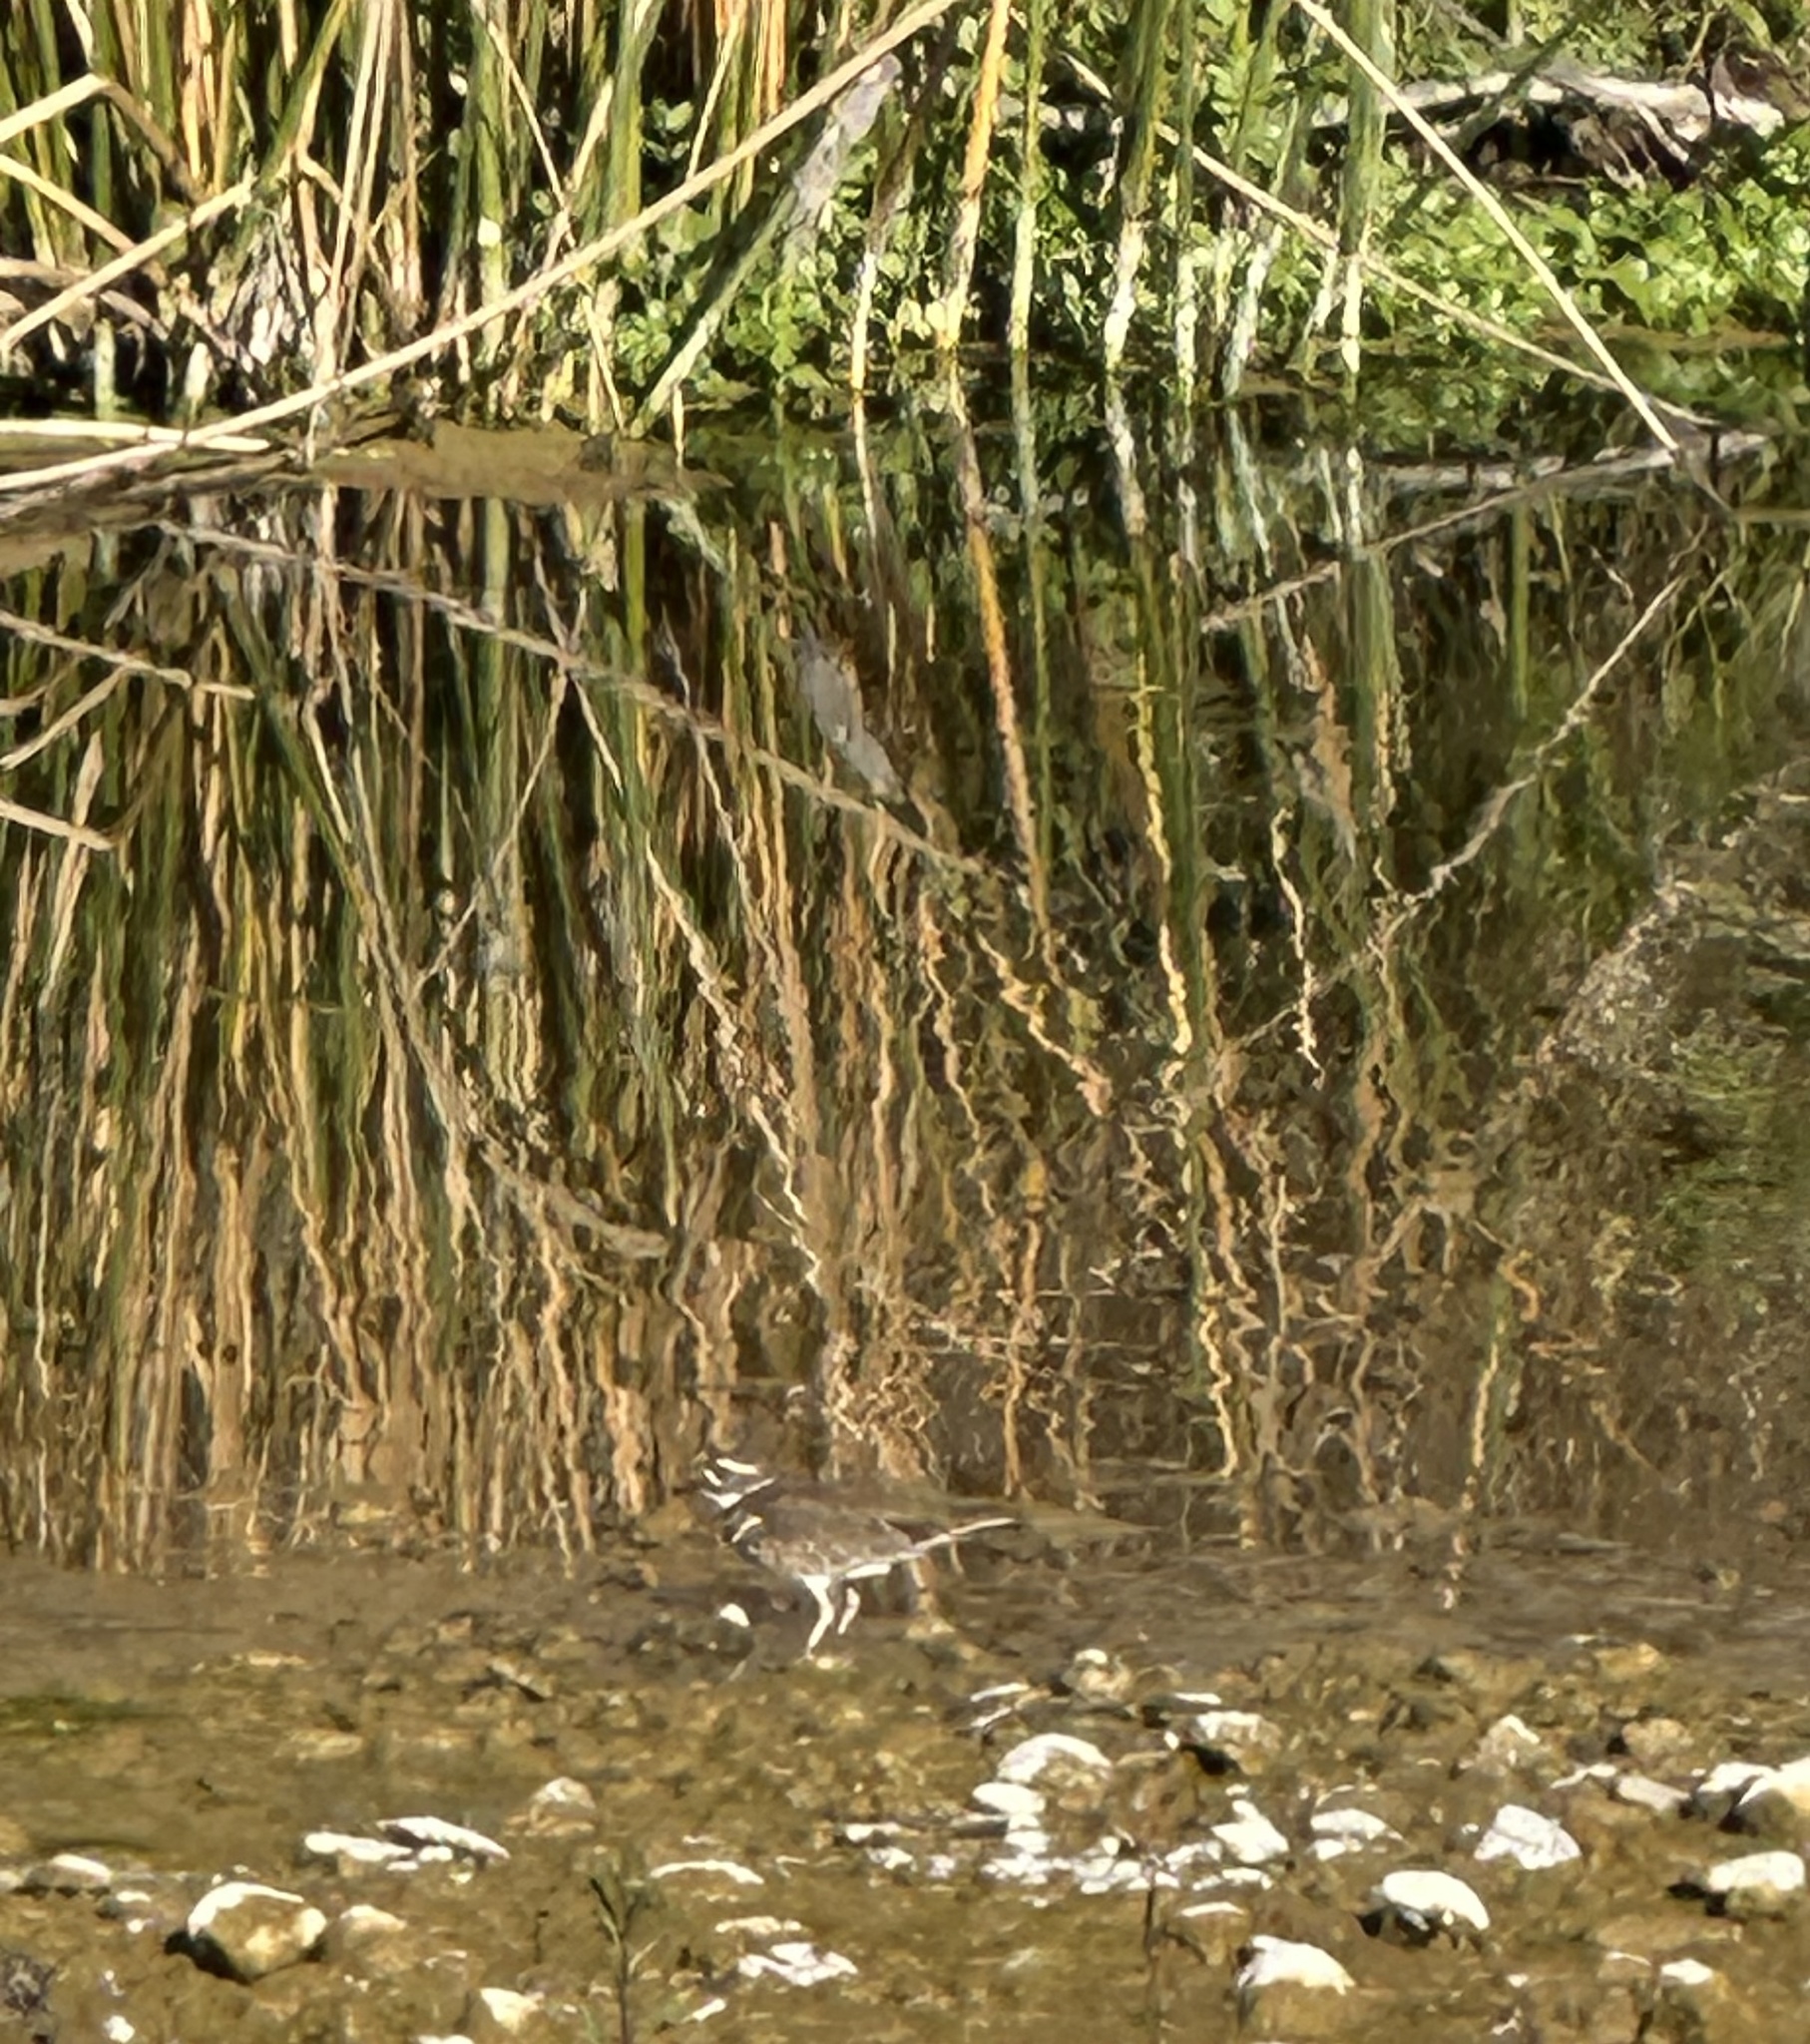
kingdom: Animalia
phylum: Chordata
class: Aves
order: Charadriiformes
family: Charadriidae
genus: Charadrius
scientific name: Charadrius vociferus
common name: Killdeer
